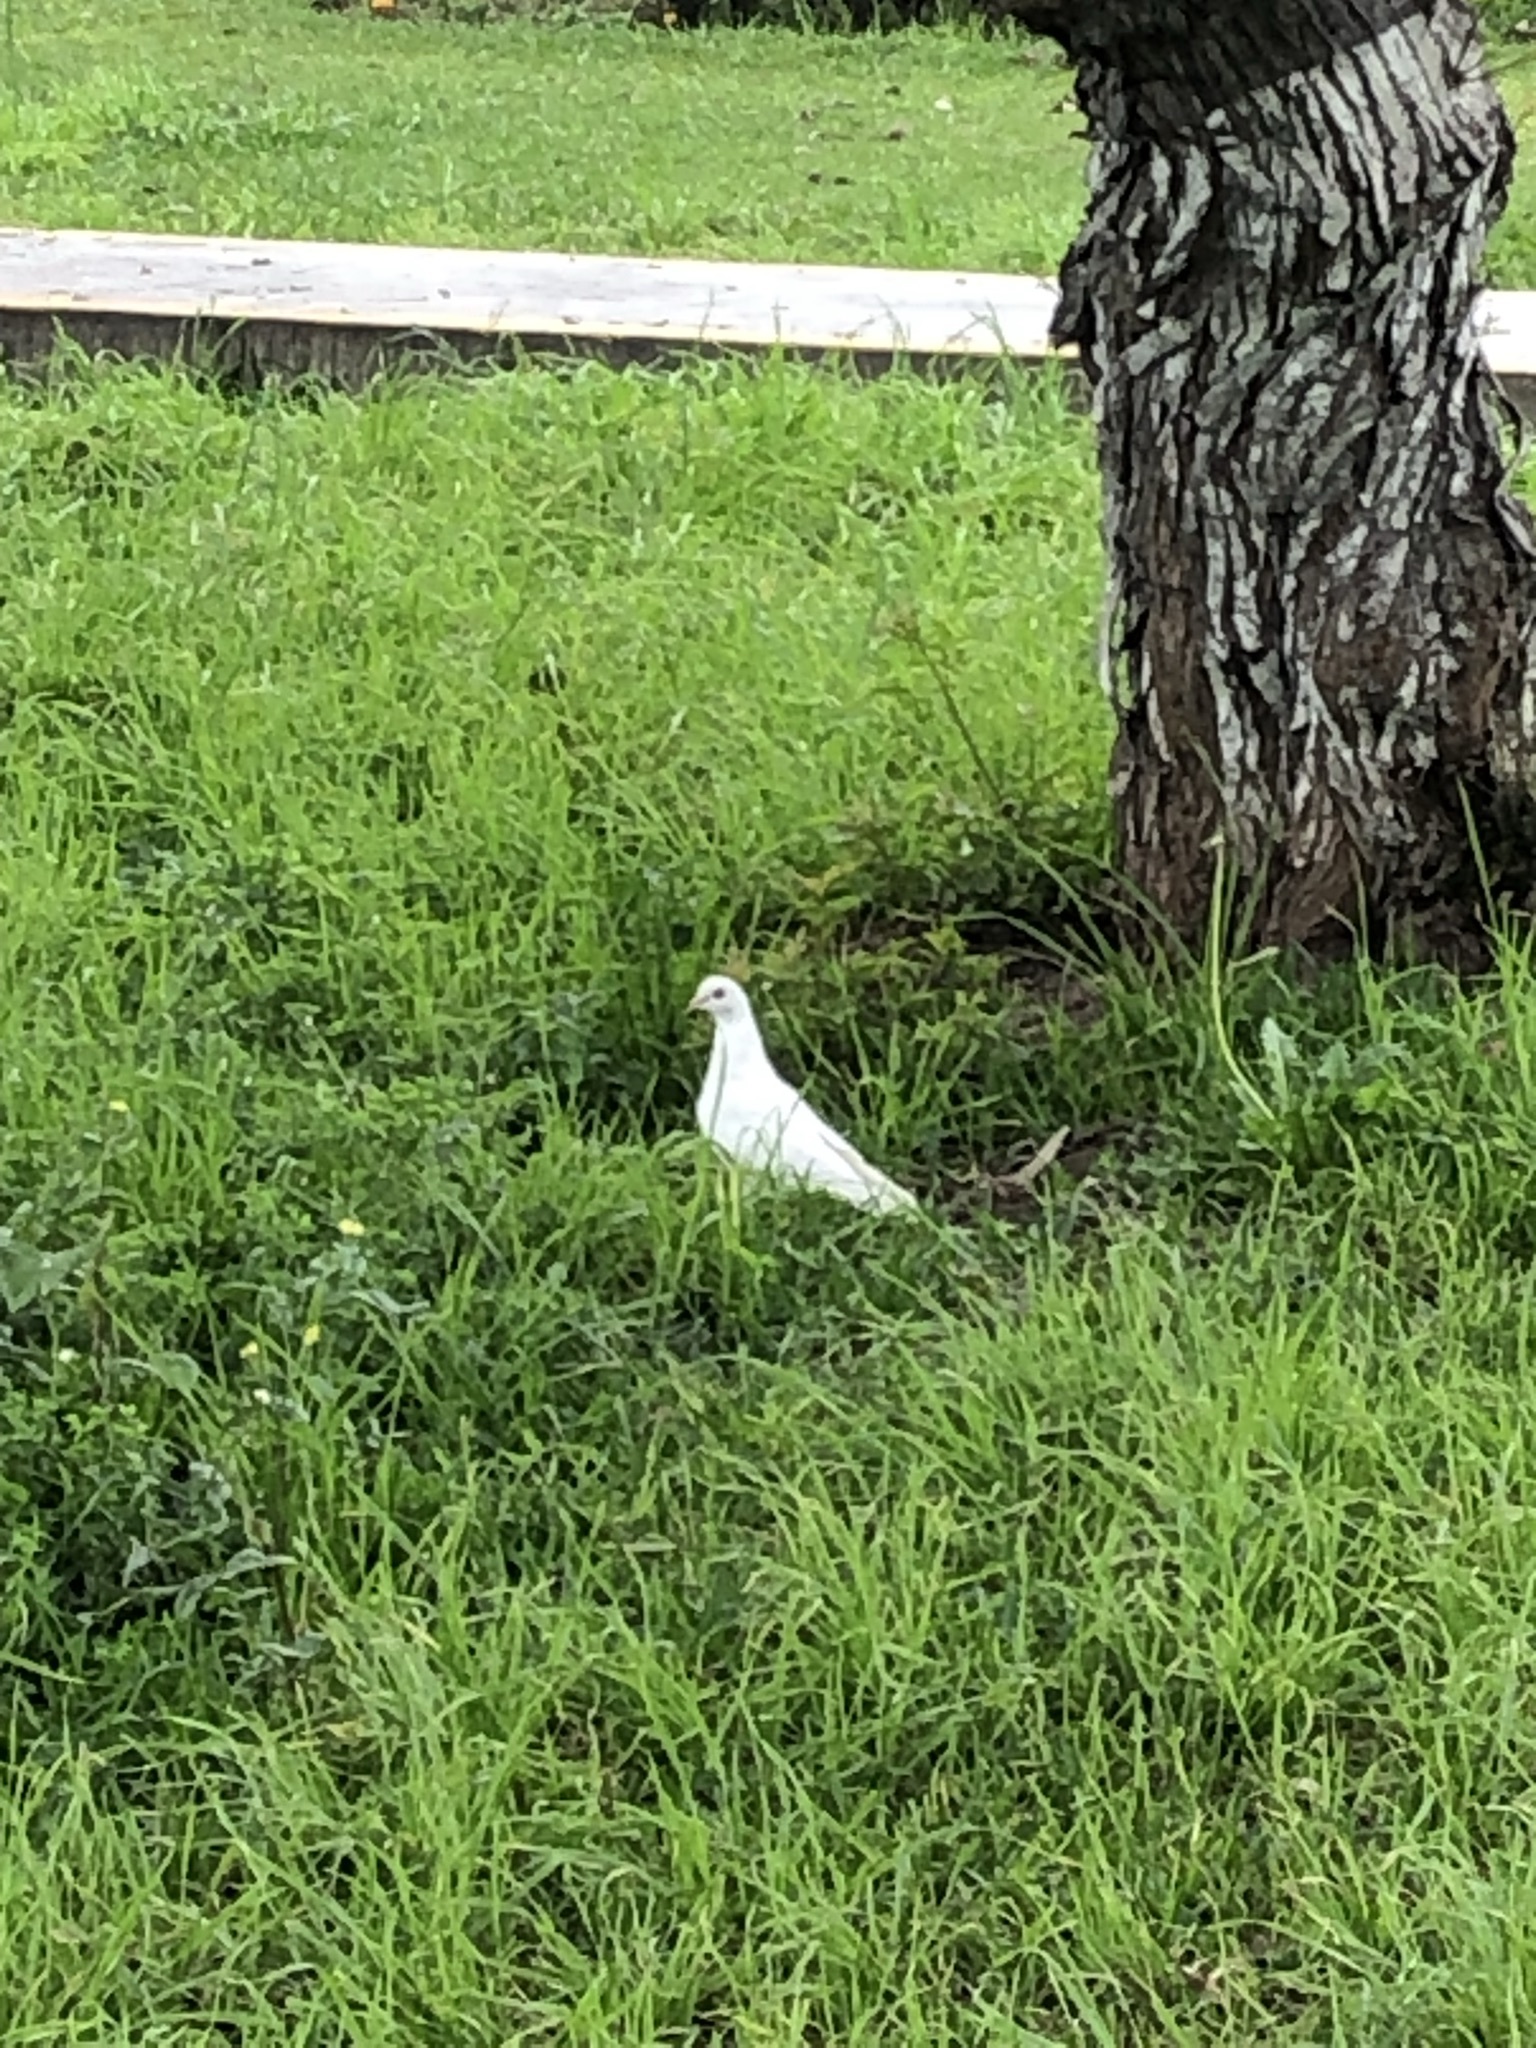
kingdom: Animalia
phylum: Chordata
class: Aves
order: Columbiformes
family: Columbidae
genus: Columba
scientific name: Columba livia
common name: Rock pigeon
